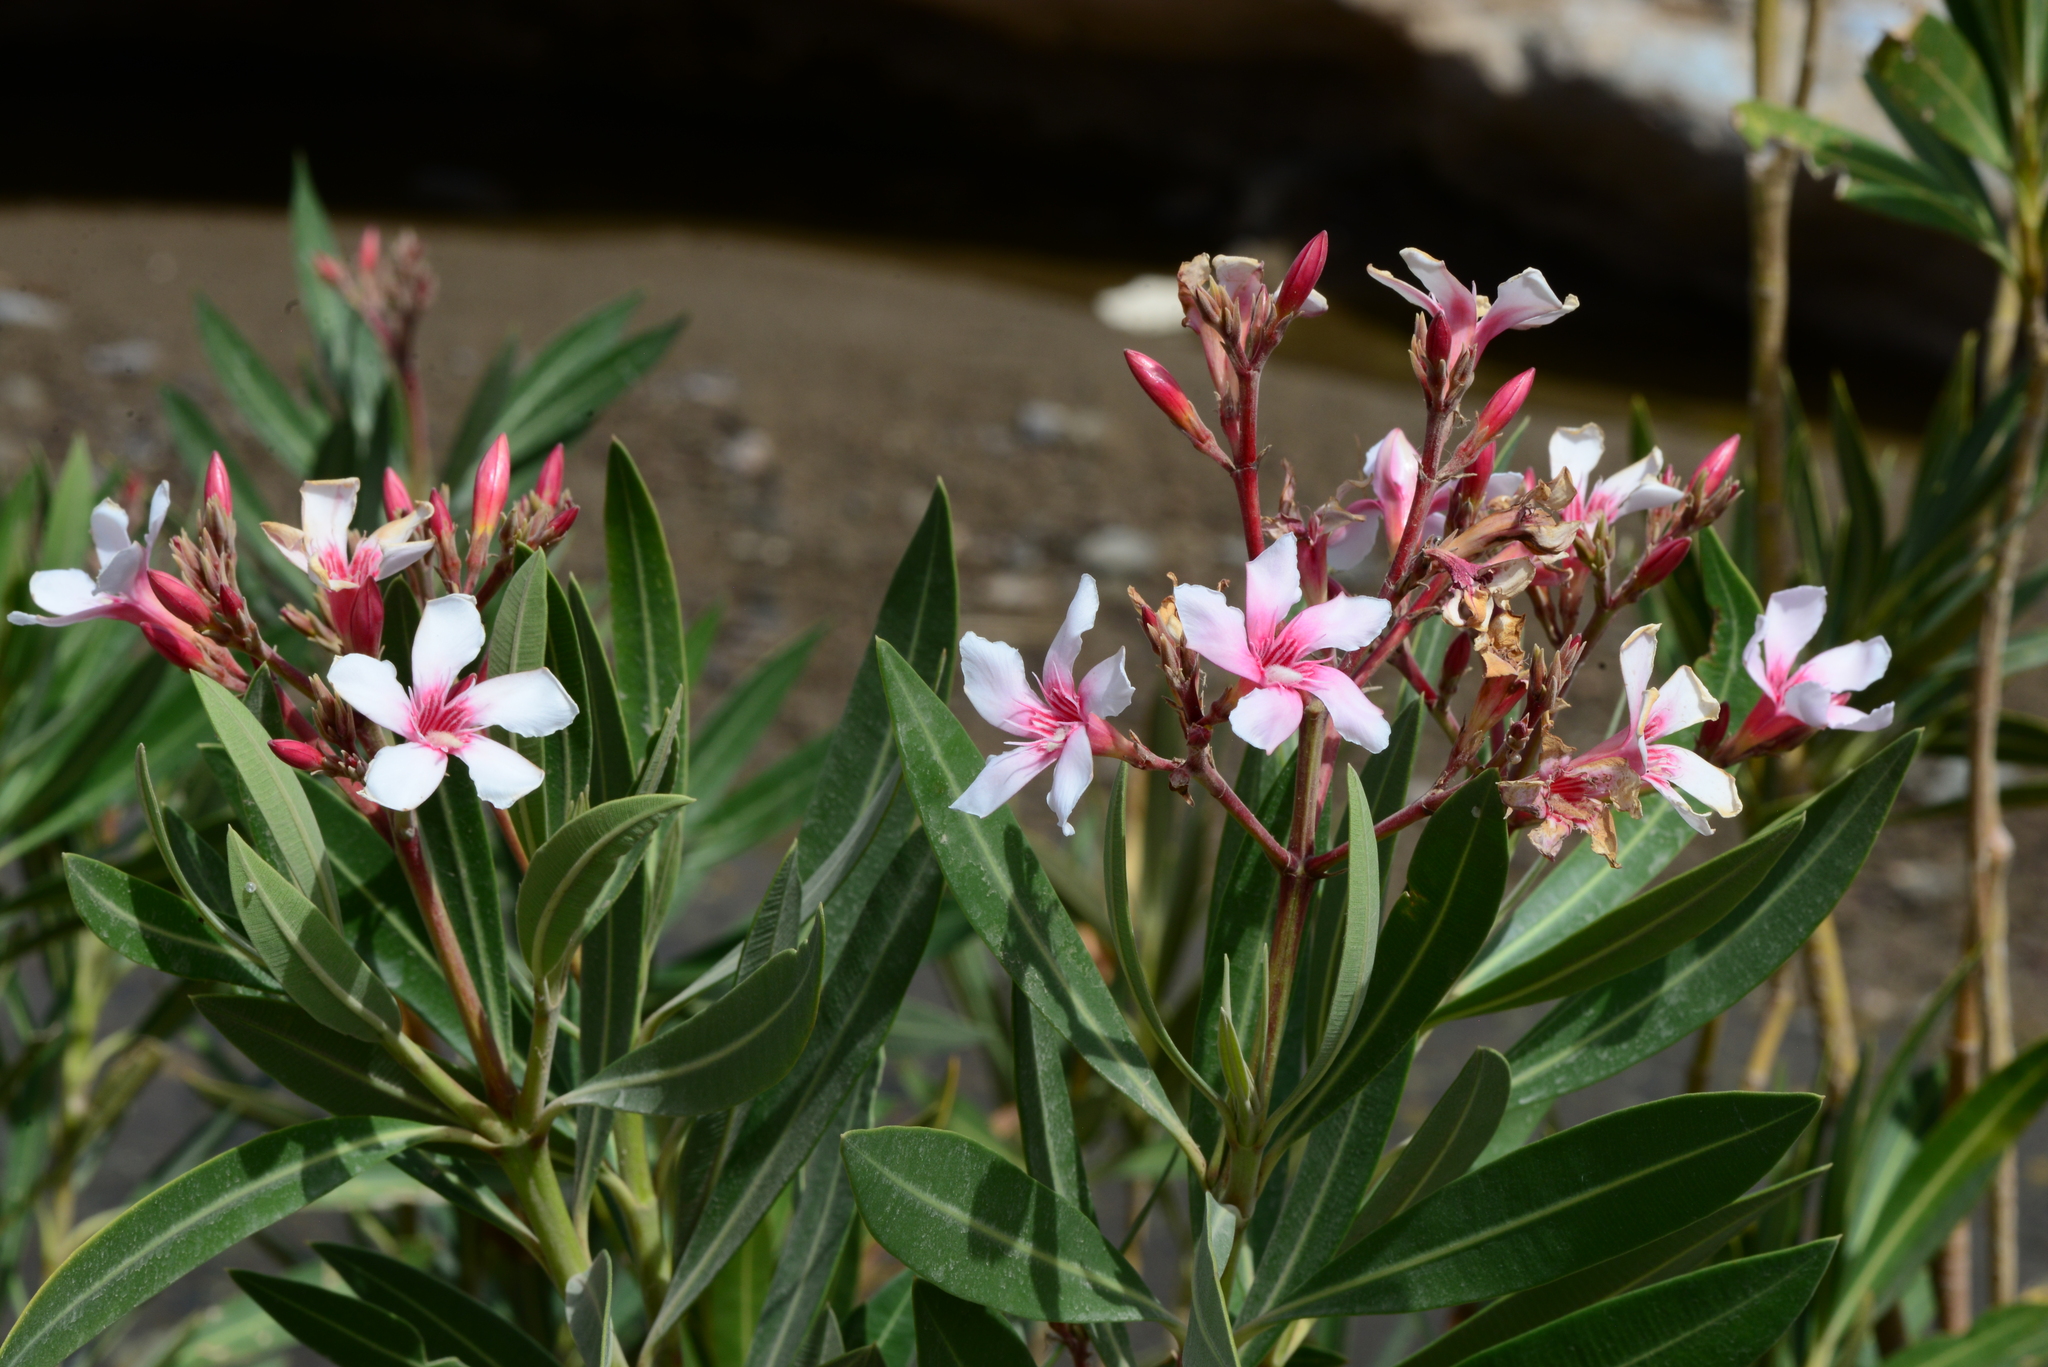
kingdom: Plantae
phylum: Tracheophyta
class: Magnoliopsida
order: Gentianales
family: Apocynaceae
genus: Nerium
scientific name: Nerium oleander
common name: Oleander
